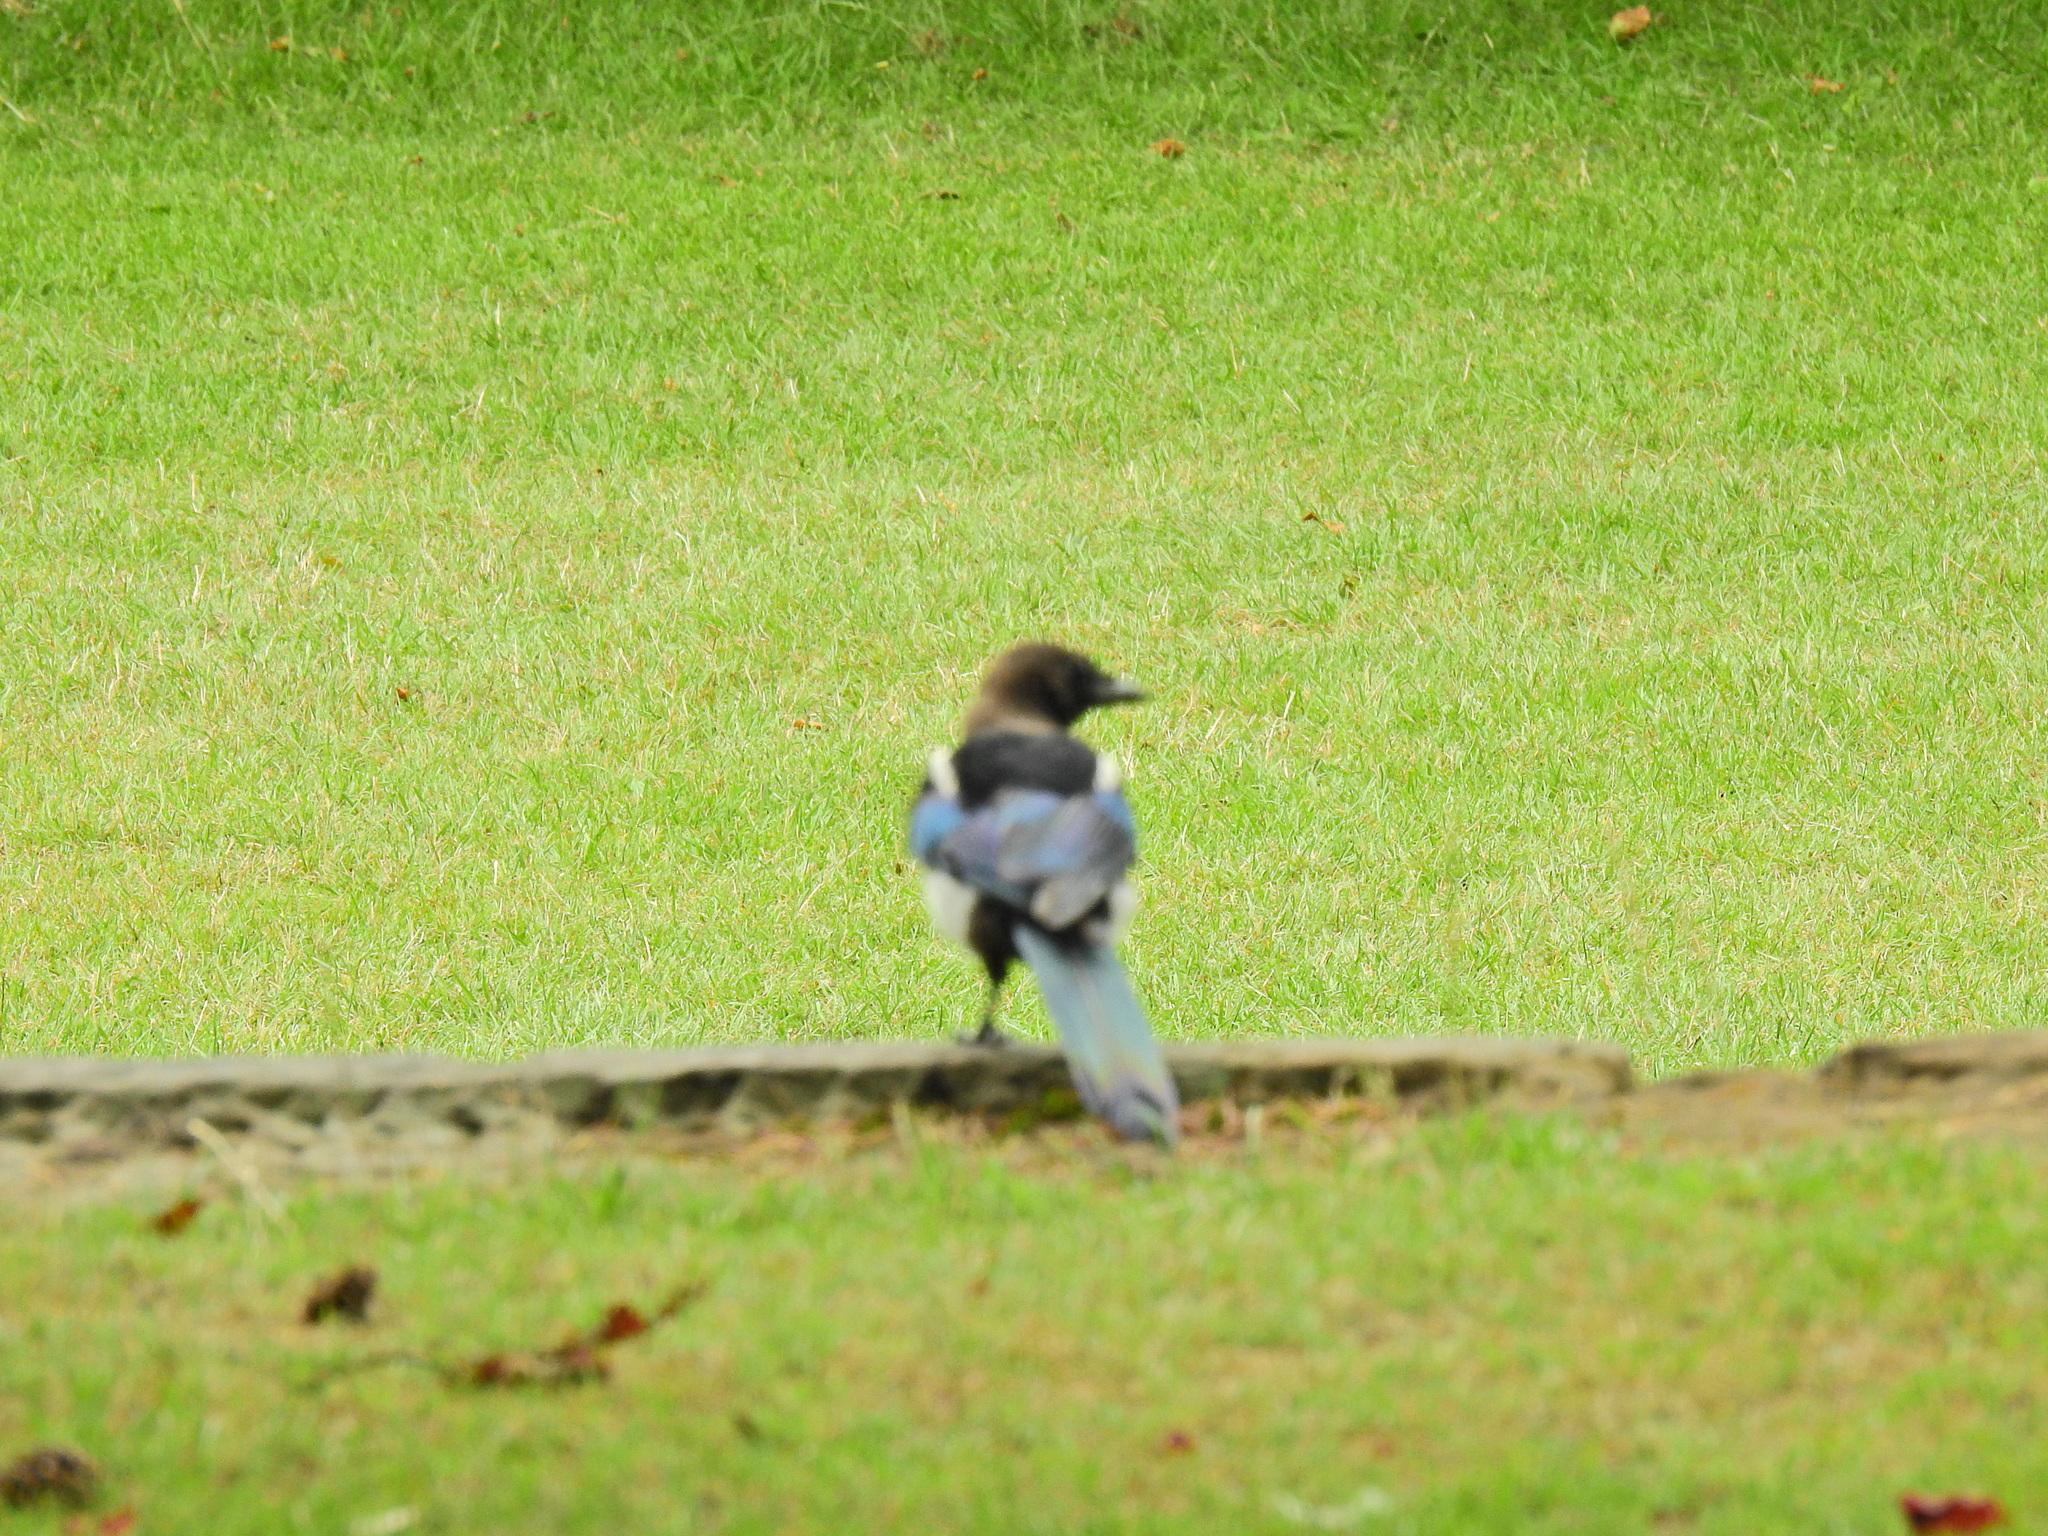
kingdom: Animalia
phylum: Chordata
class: Aves
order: Passeriformes
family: Corvidae
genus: Pica
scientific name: Pica pica
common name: Eurasian magpie
